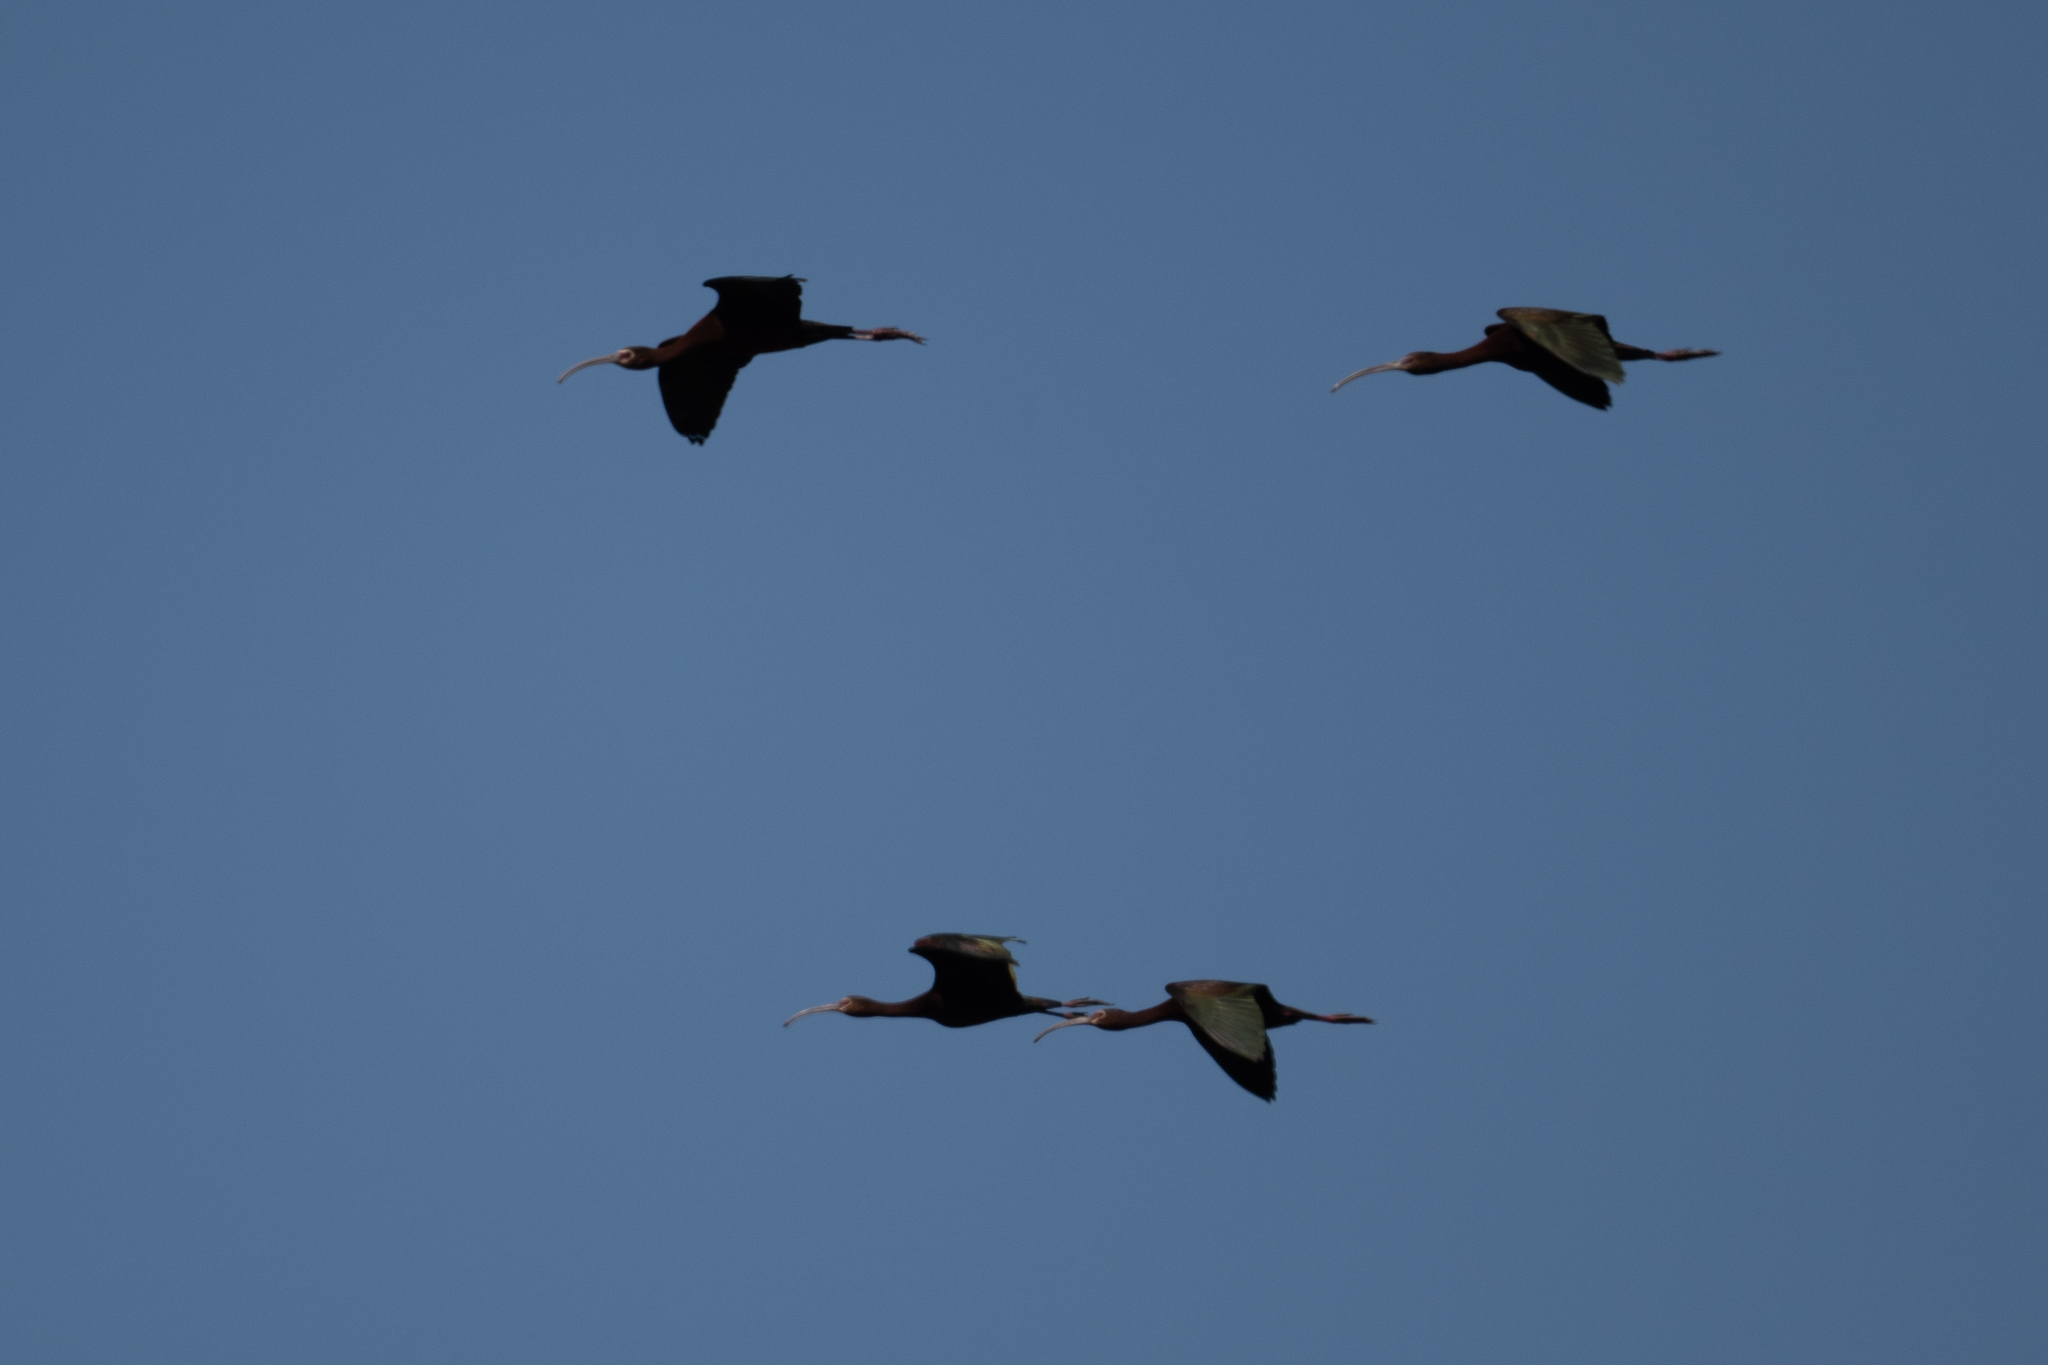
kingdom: Animalia
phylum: Chordata
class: Aves
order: Pelecaniformes
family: Threskiornithidae
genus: Plegadis
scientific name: Plegadis chihi
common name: White-faced ibis
